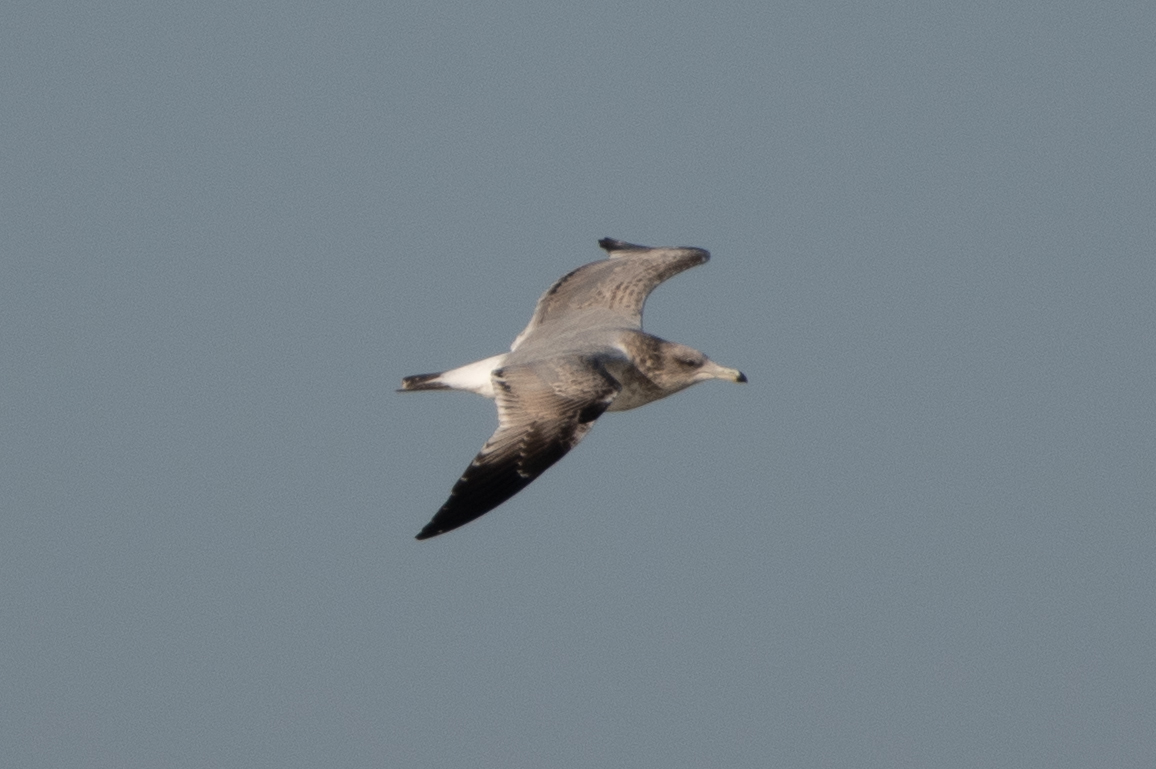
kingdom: Animalia
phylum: Chordata
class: Aves
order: Charadriiformes
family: Laridae
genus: Larus
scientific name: Larus californicus
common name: California gull
